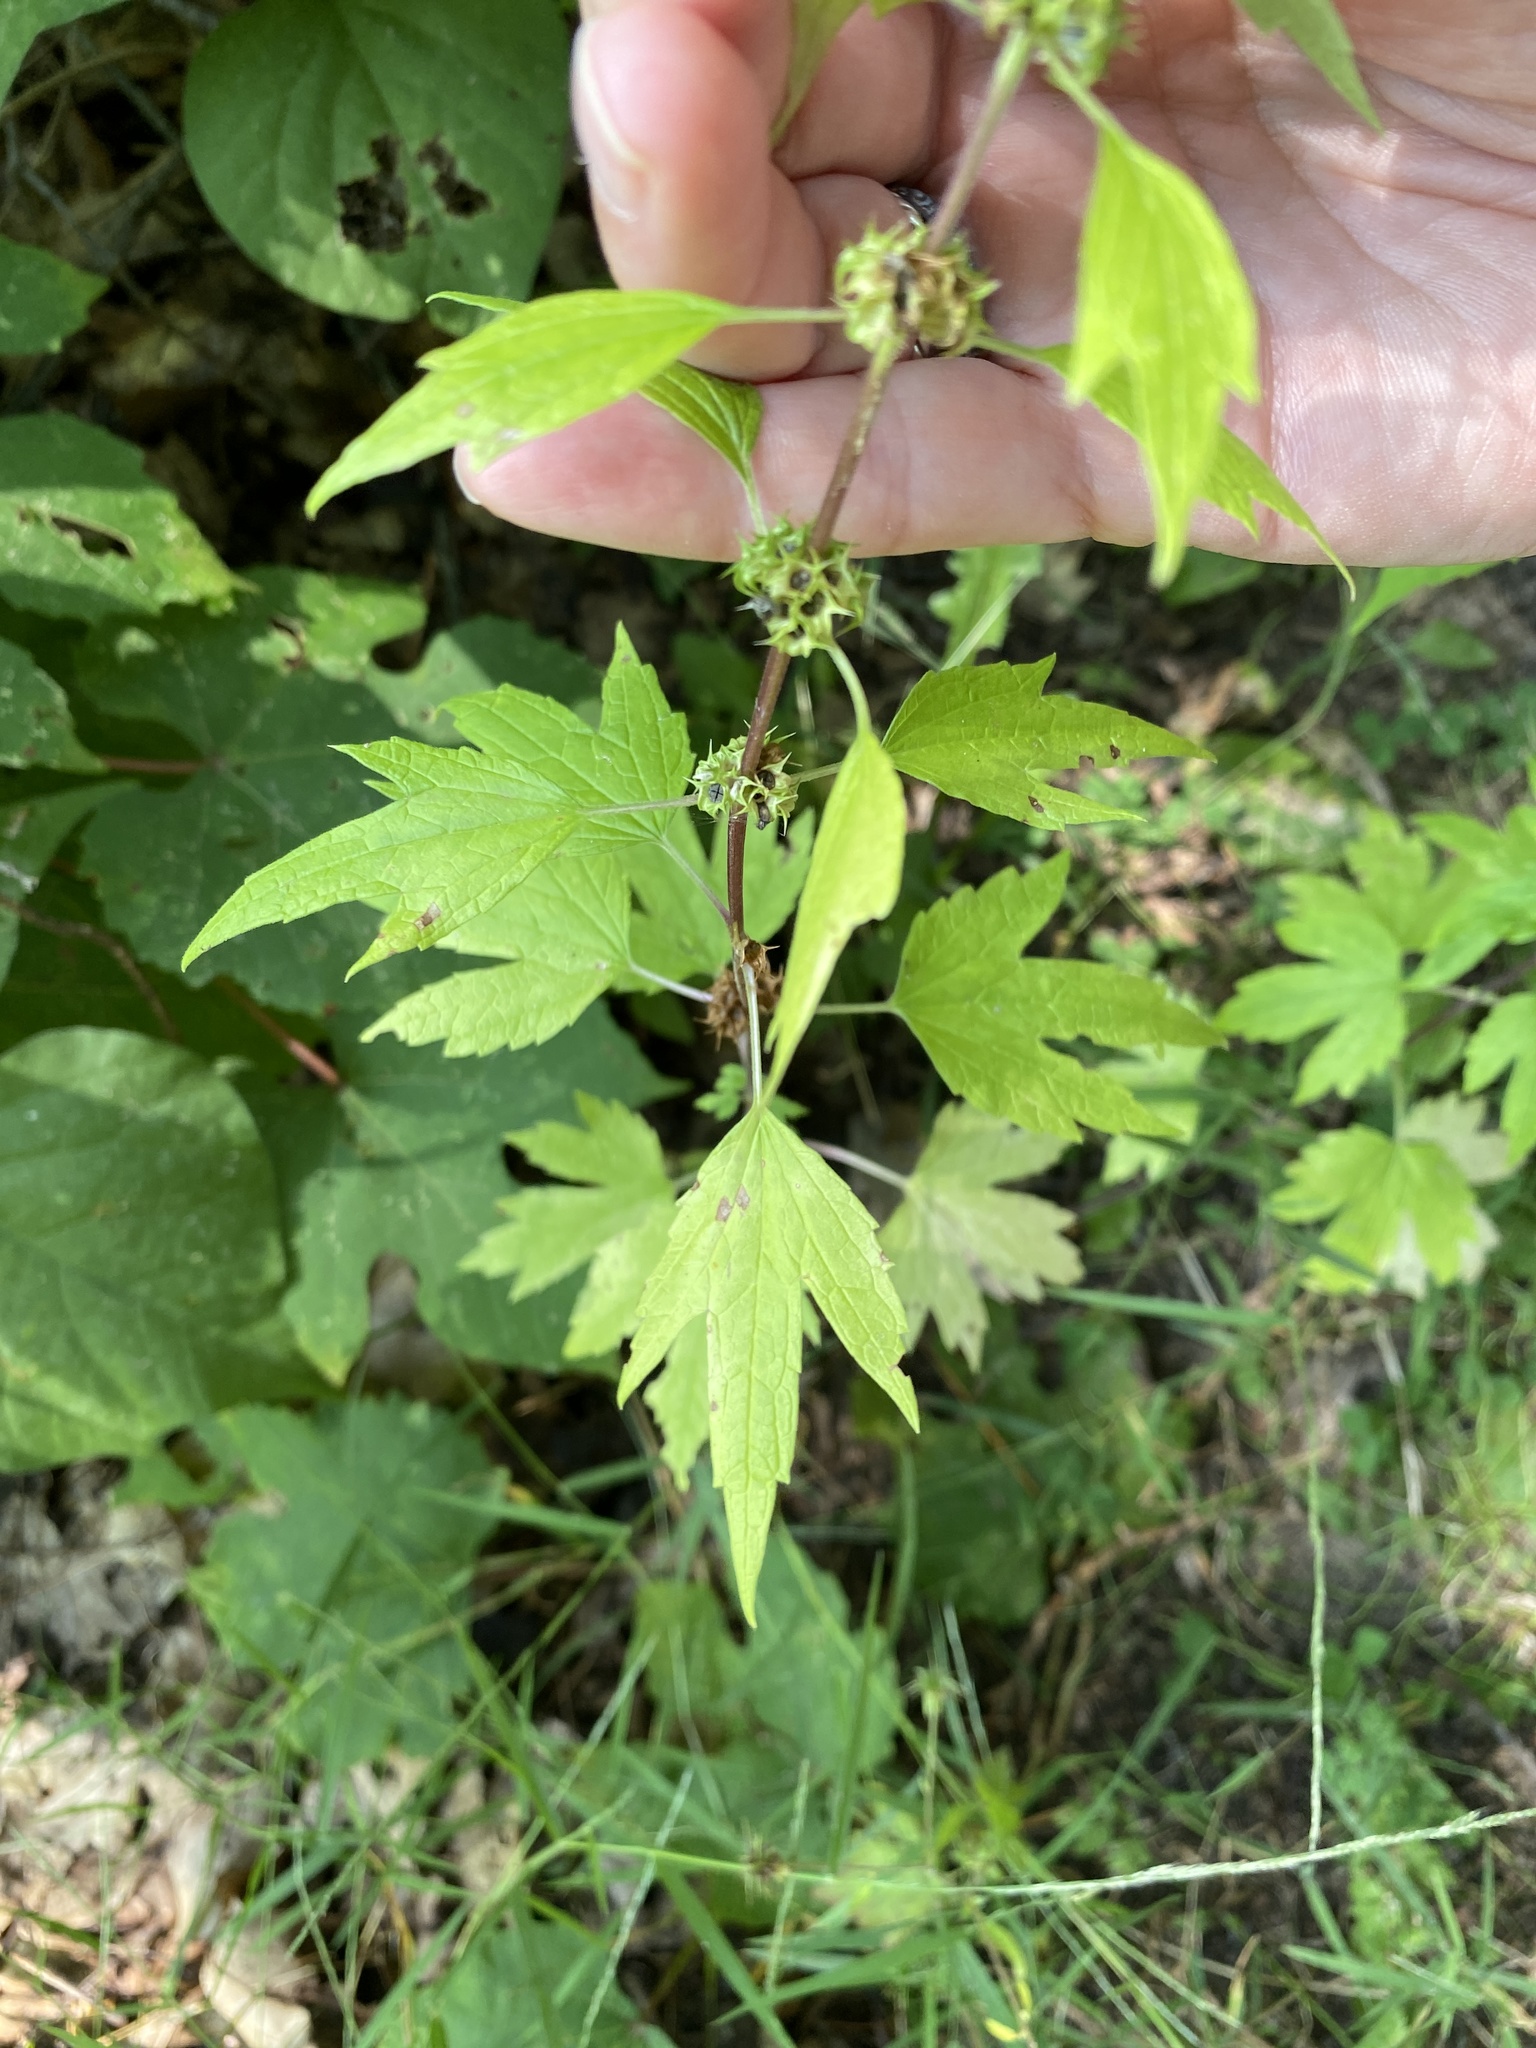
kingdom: Plantae
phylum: Tracheophyta
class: Magnoliopsida
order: Lamiales
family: Lamiaceae
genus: Leonurus
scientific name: Leonurus cardiaca
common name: Motherwort
